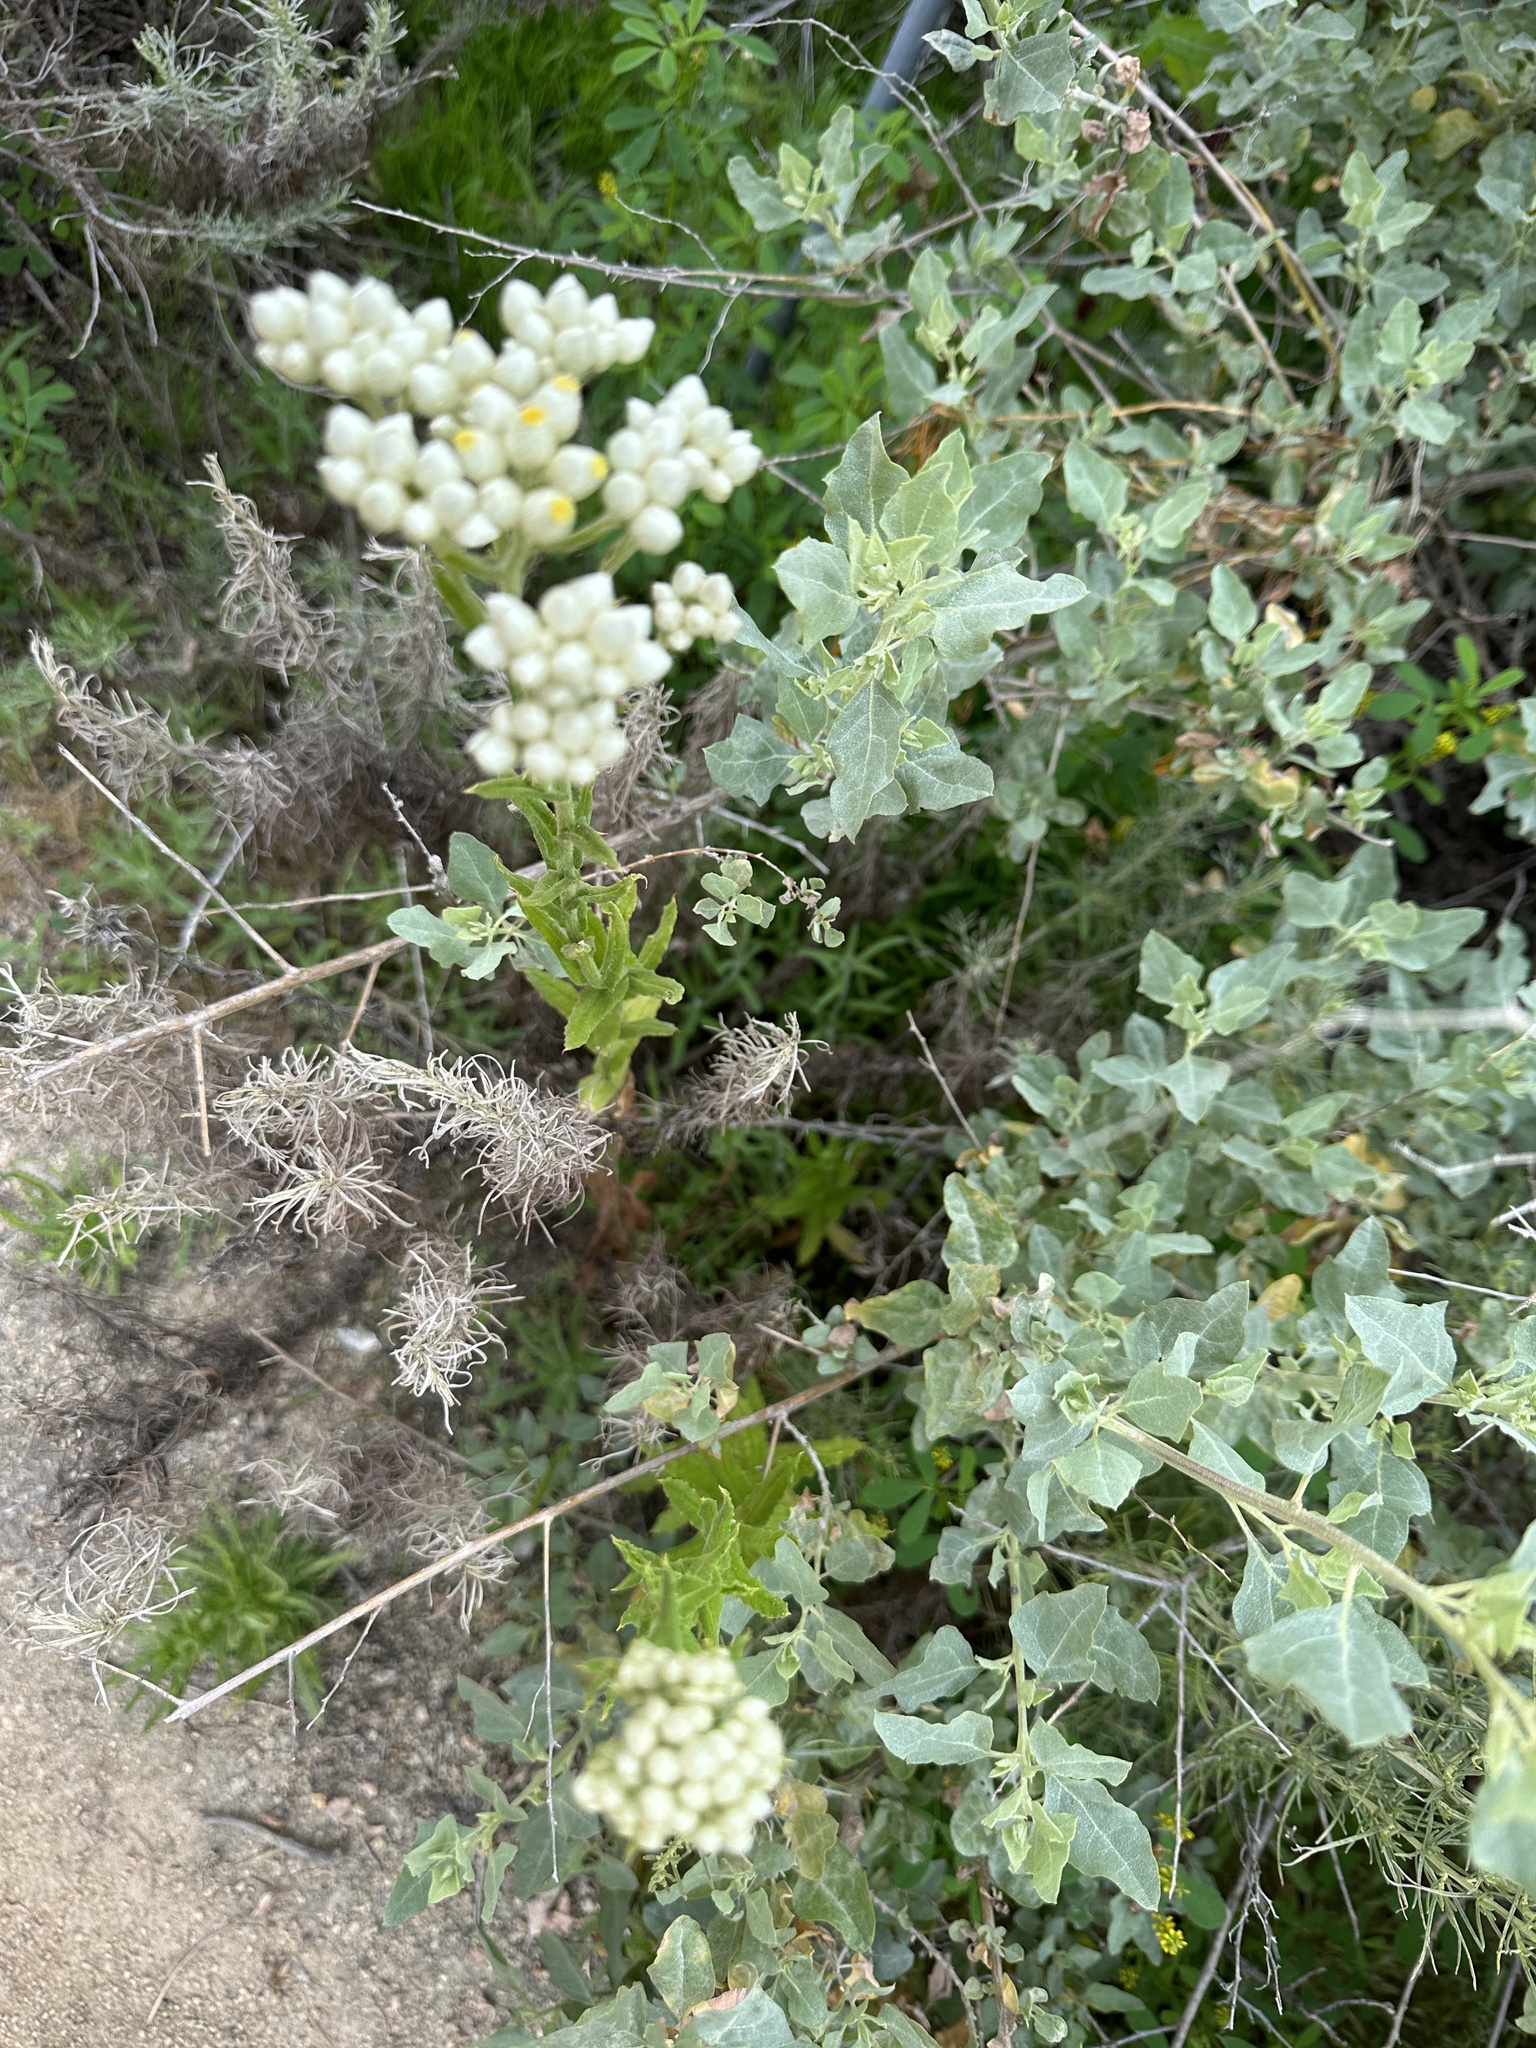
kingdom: Plantae
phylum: Tracheophyta
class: Magnoliopsida
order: Asterales
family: Asteraceae
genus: Pseudognaphalium
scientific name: Pseudognaphalium californicum
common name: California rabbit-tobacco
